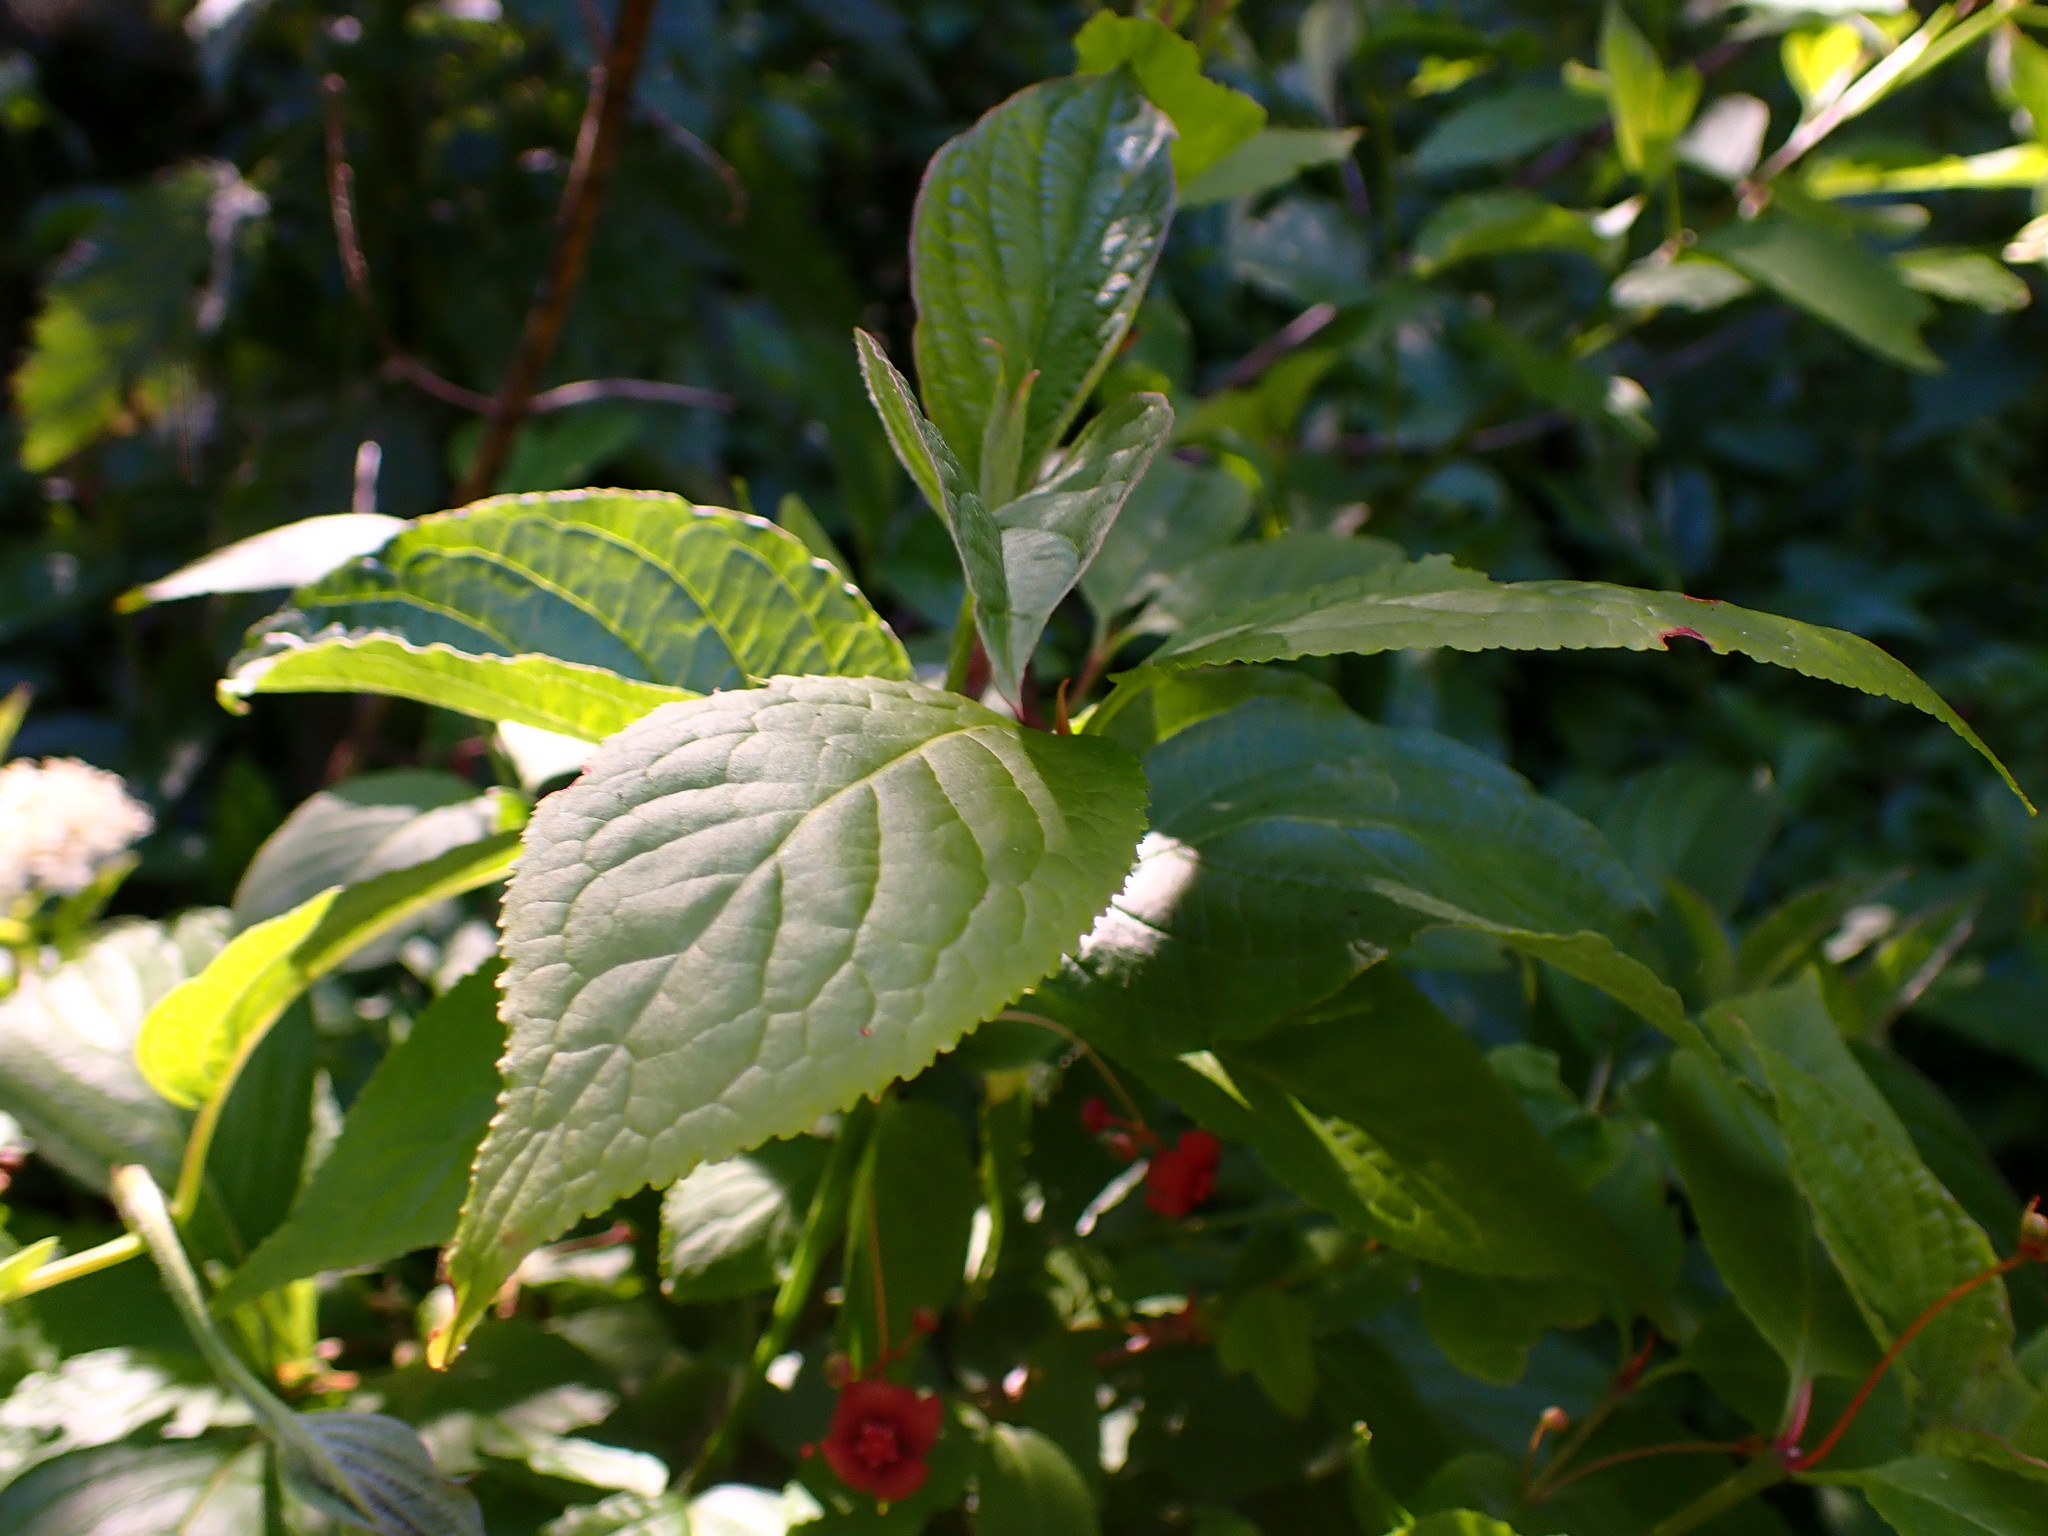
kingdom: Plantae
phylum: Tracheophyta
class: Magnoliopsida
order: Celastrales
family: Celastraceae
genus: Euonymus
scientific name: Euonymus occidentalis
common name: Western burningbush
